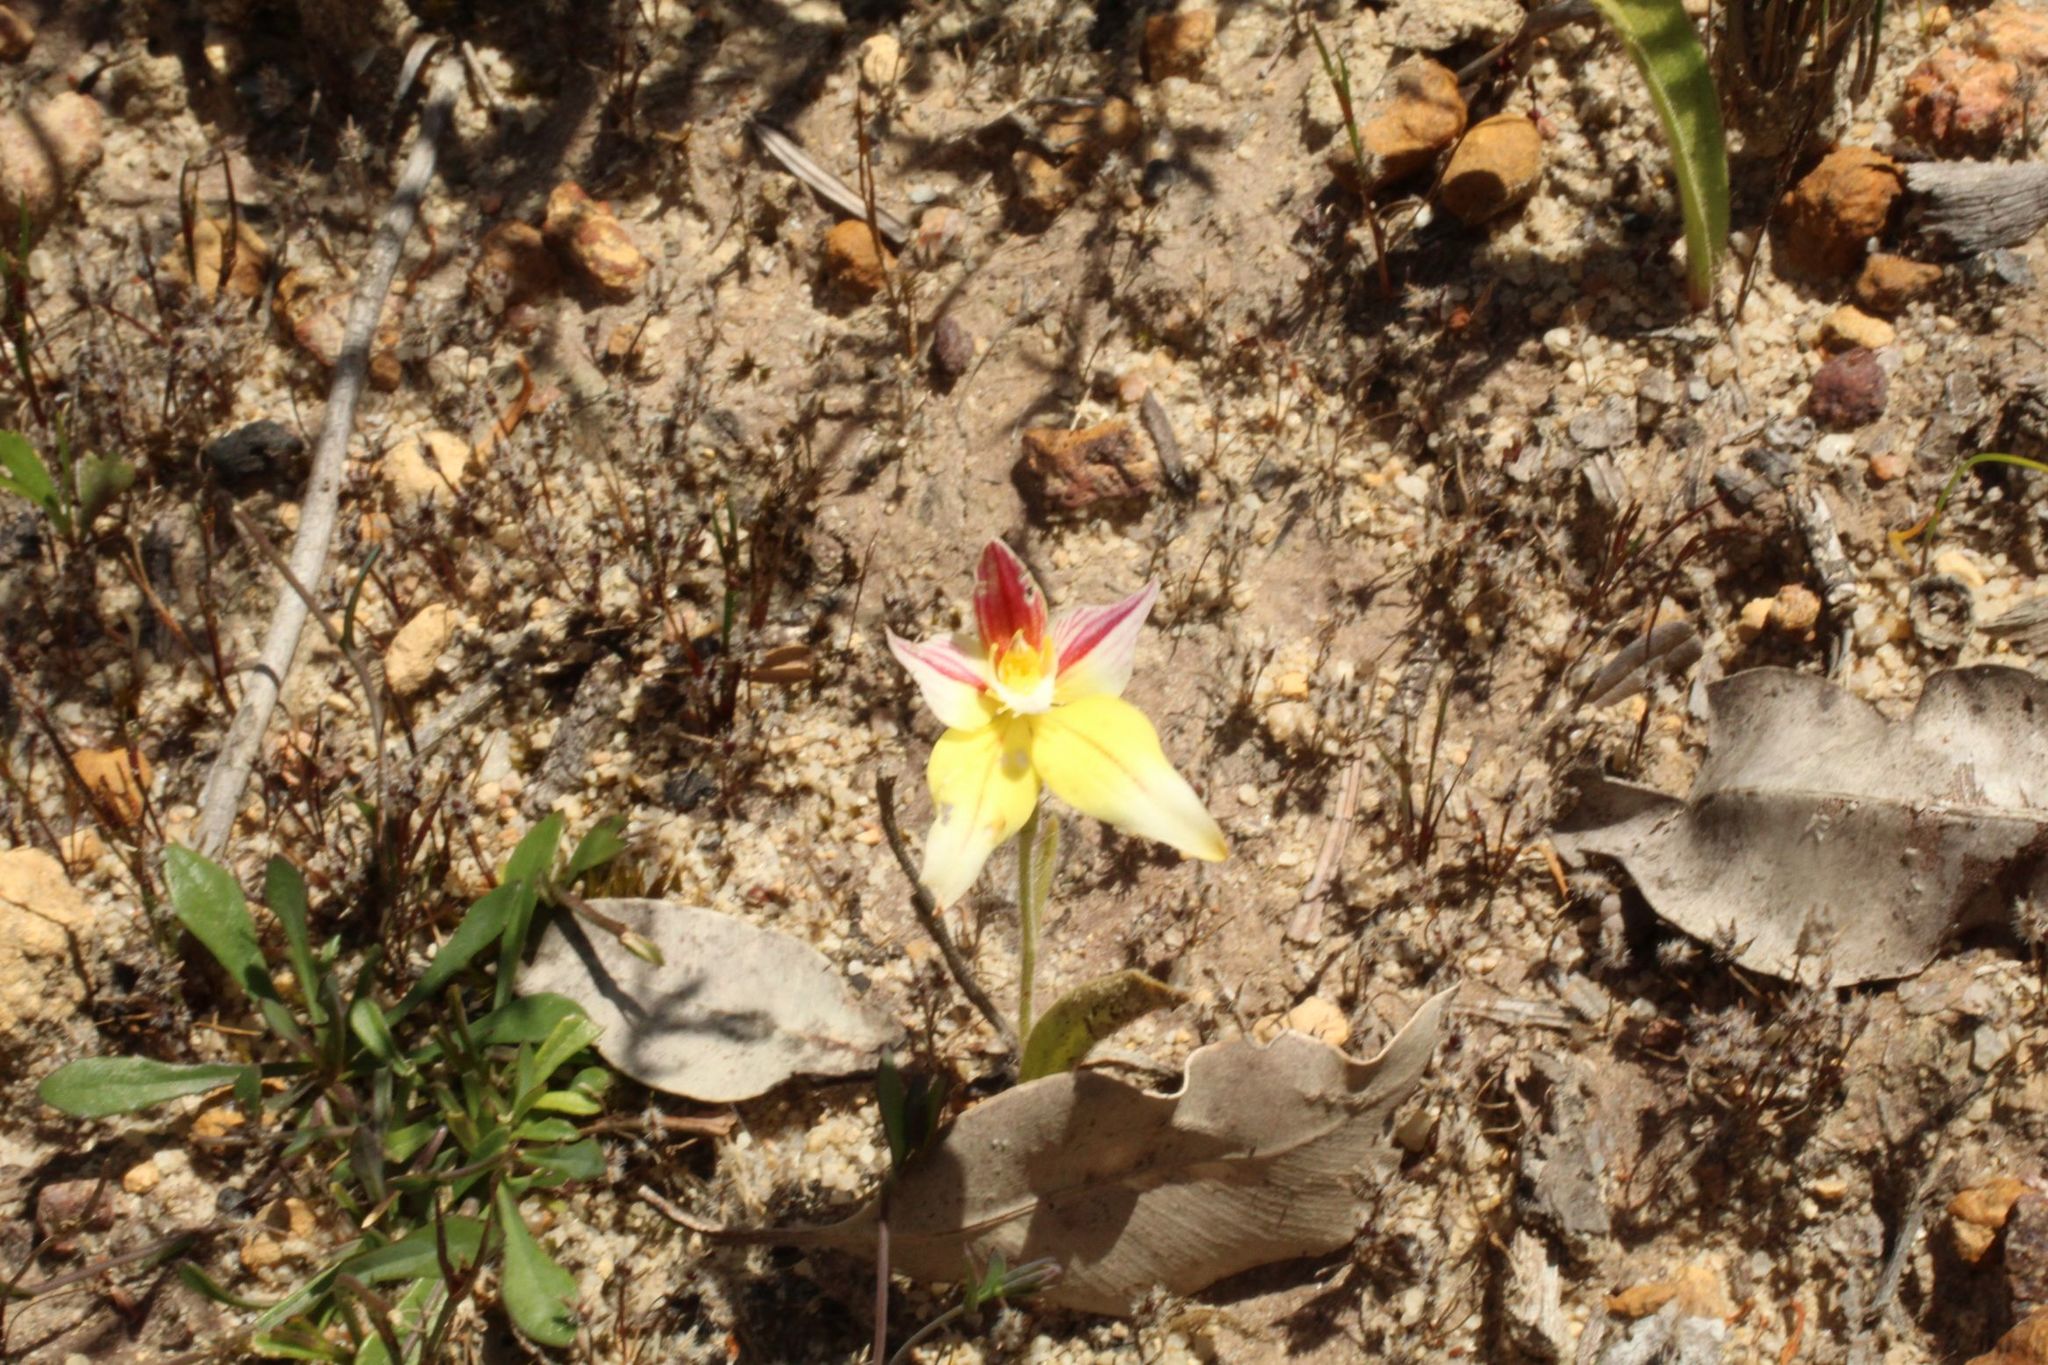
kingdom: Plantae
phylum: Tracheophyta
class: Liliopsida
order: Asparagales
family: Orchidaceae
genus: Caladenia
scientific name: Caladenia flava
